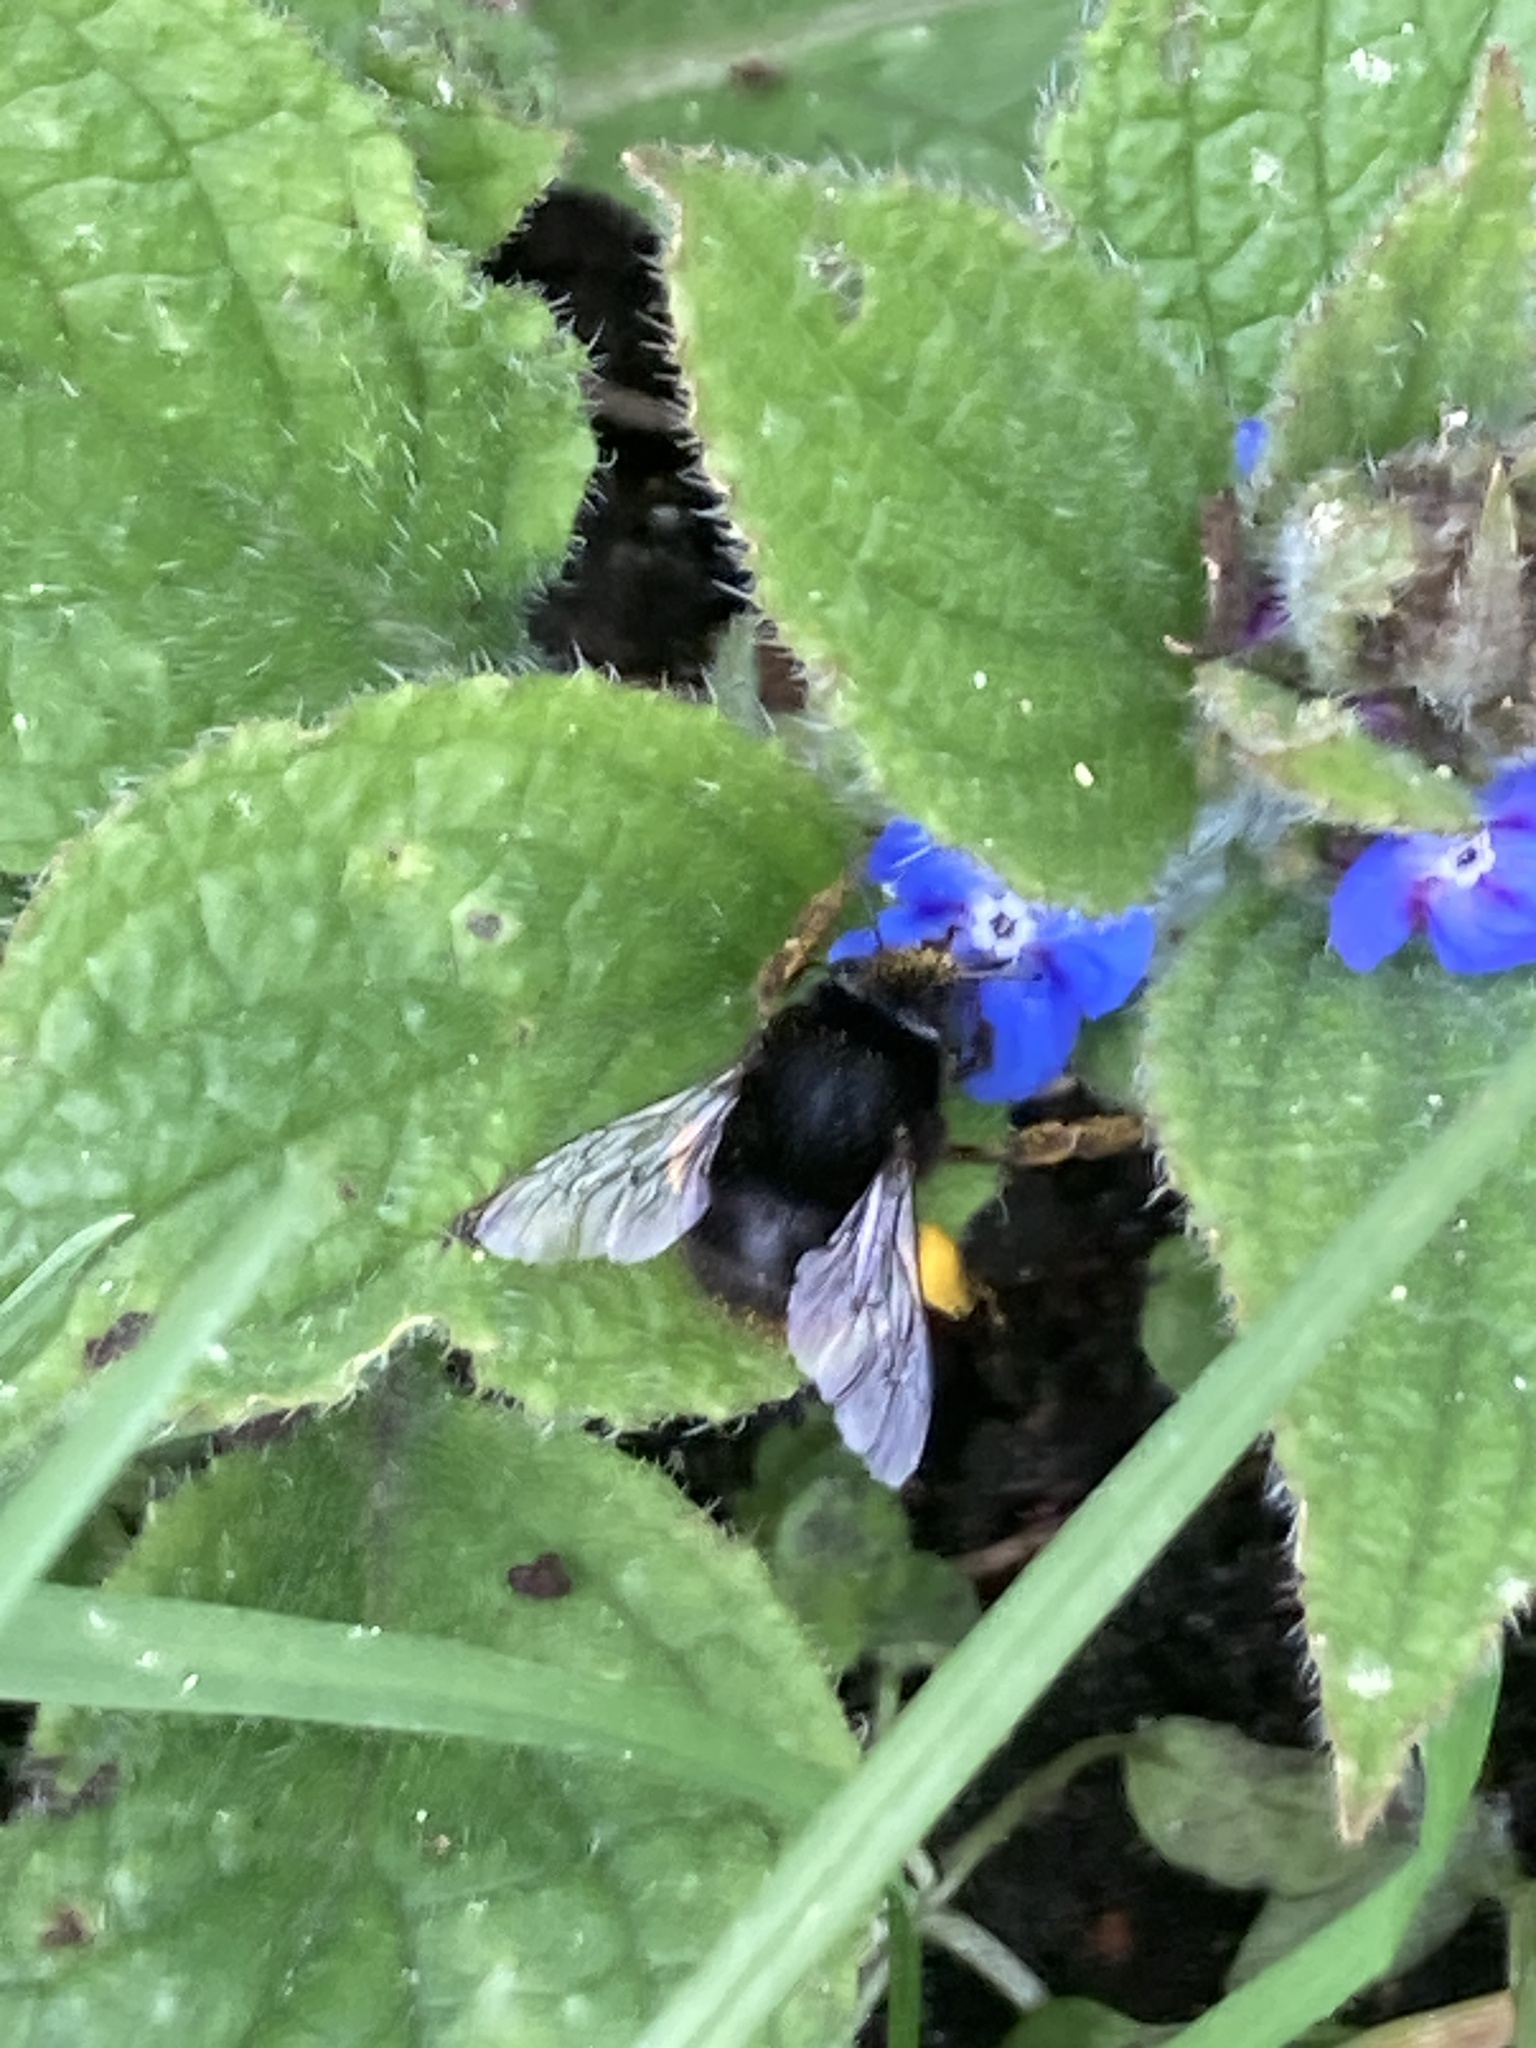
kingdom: Animalia
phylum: Arthropoda
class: Insecta
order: Hymenoptera
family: Apidae
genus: Anthophora
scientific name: Anthophora plumipes
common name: Hairy-footed flower bee
